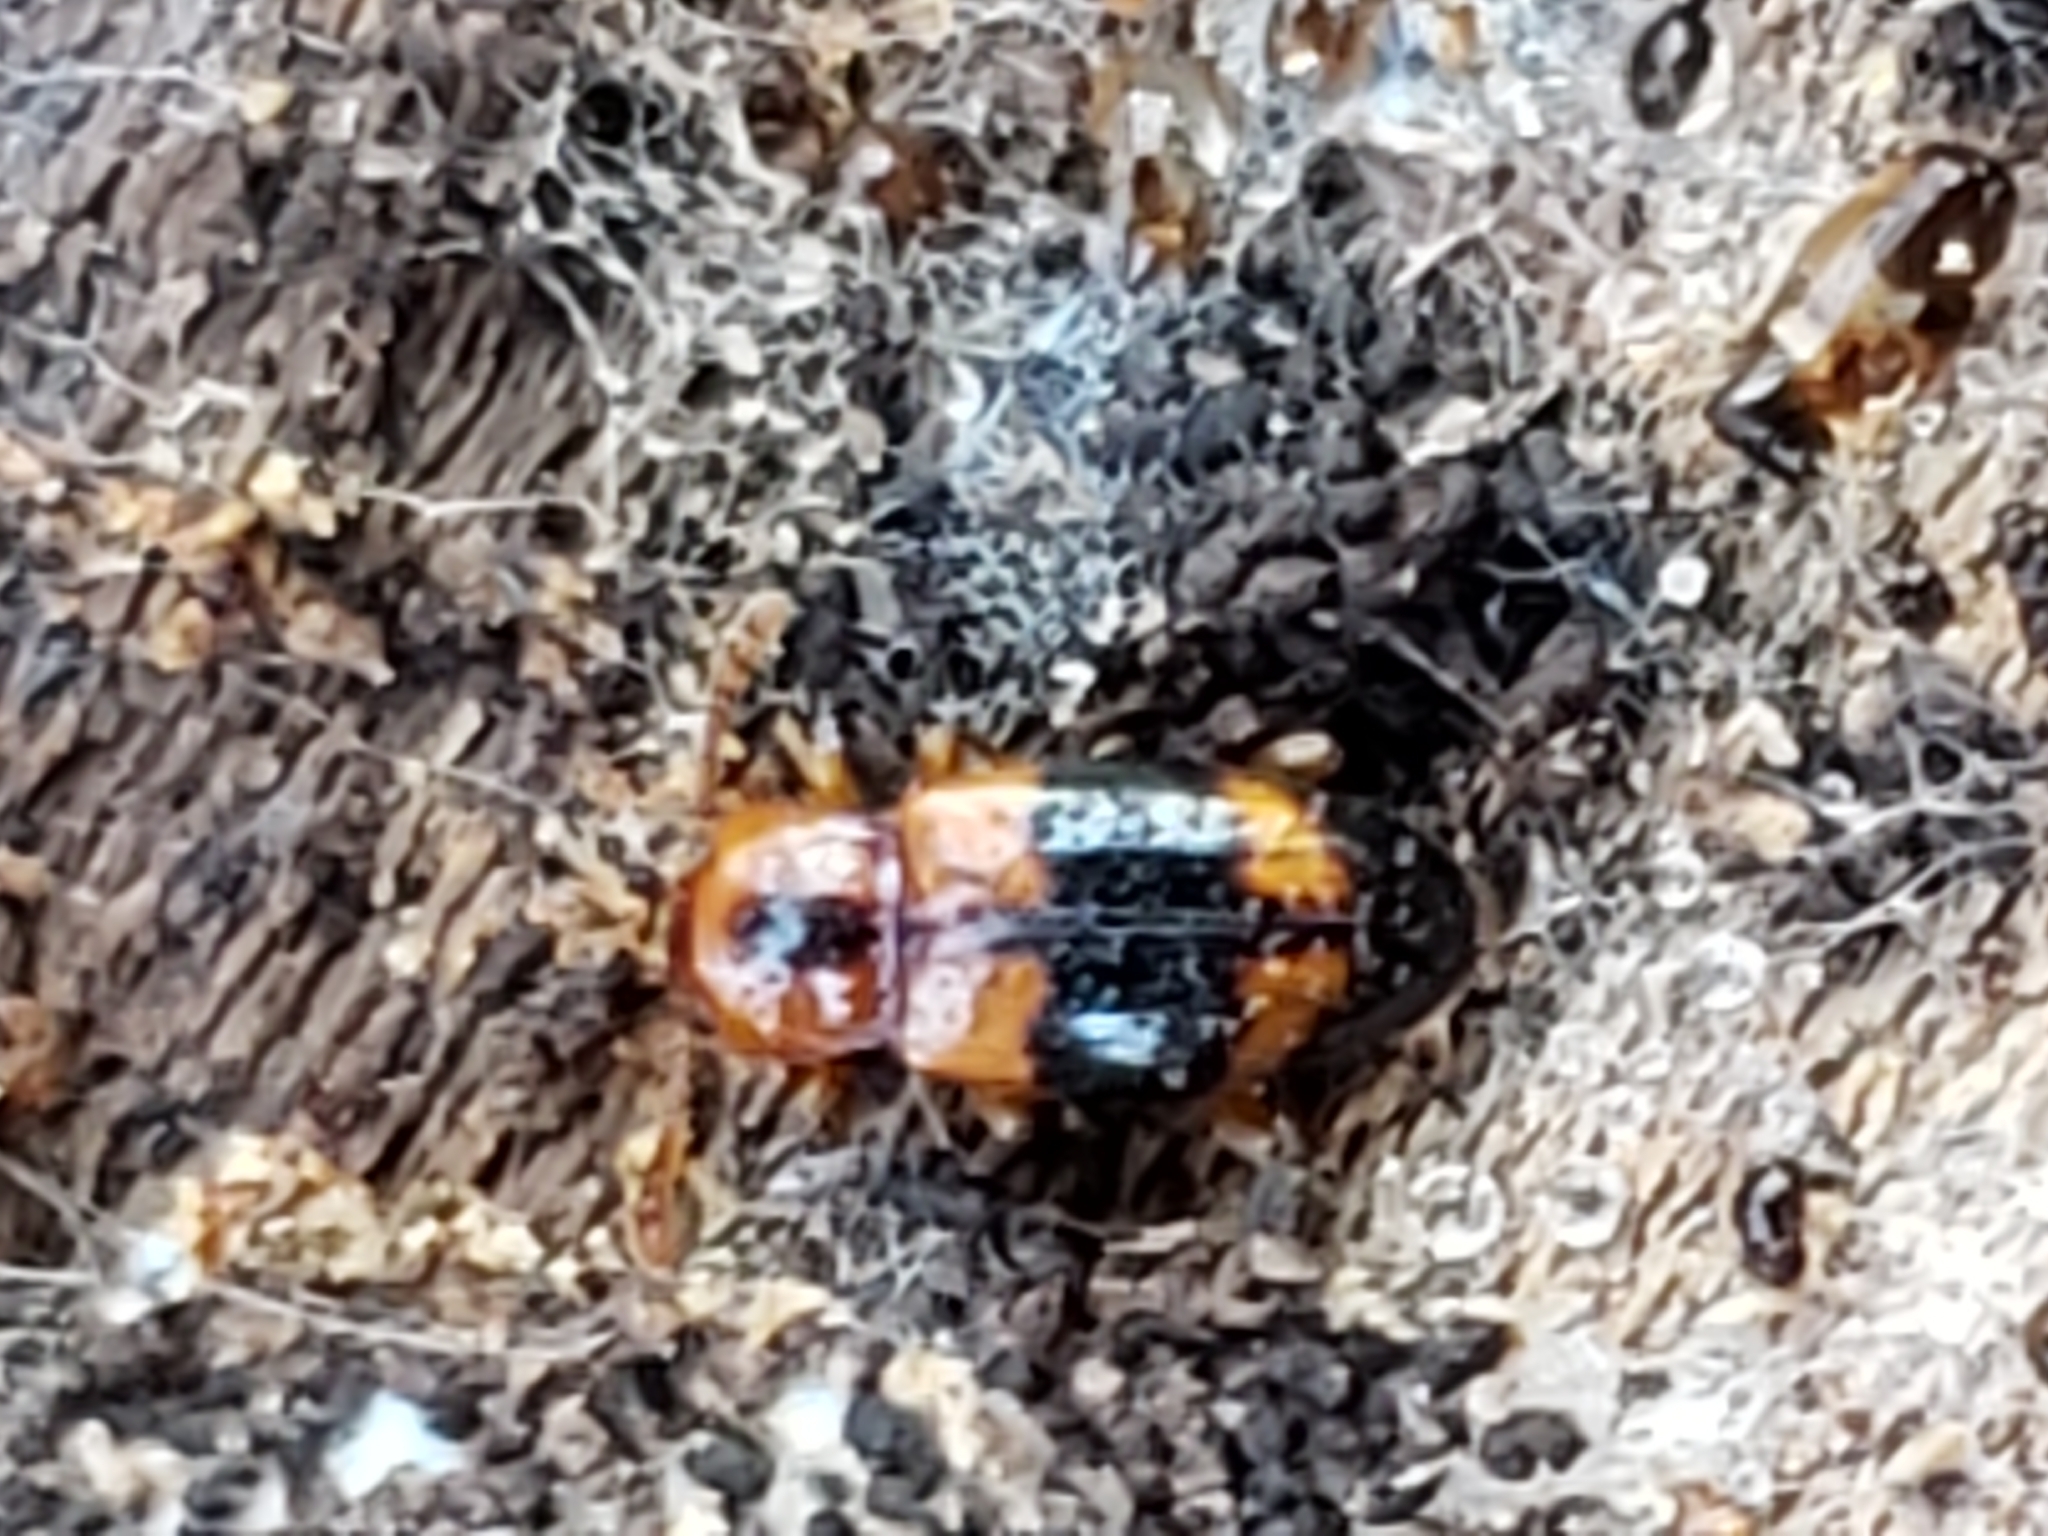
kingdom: Animalia
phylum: Arthropoda
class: Insecta
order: Coleoptera
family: Endomychidae
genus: Phymaphora
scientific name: Phymaphora pulchella
